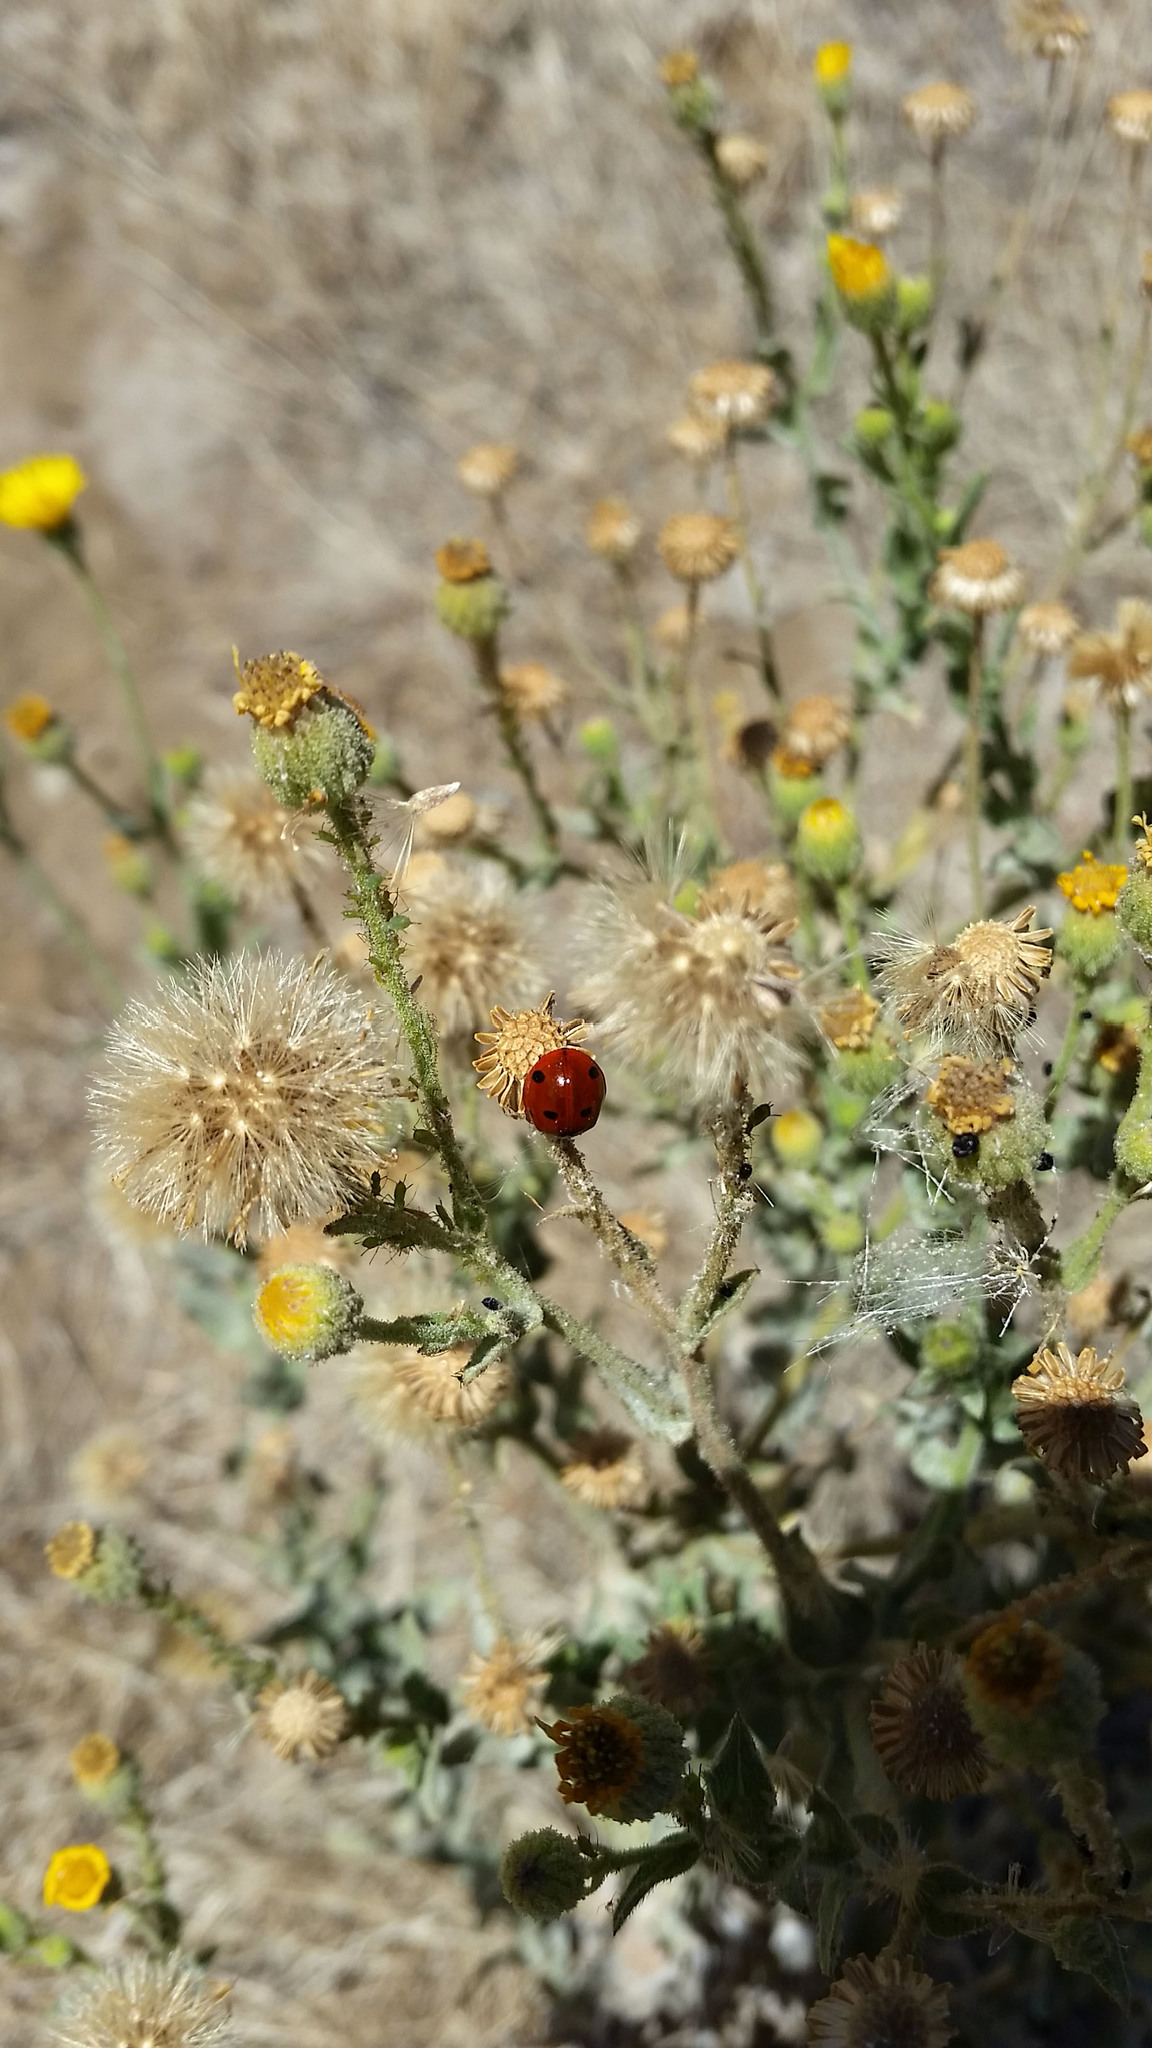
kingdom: Animalia
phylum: Arthropoda
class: Insecta
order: Coleoptera
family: Coccinellidae
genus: Coccinella
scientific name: Coccinella septempunctata
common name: Sevenspotted lady beetle
